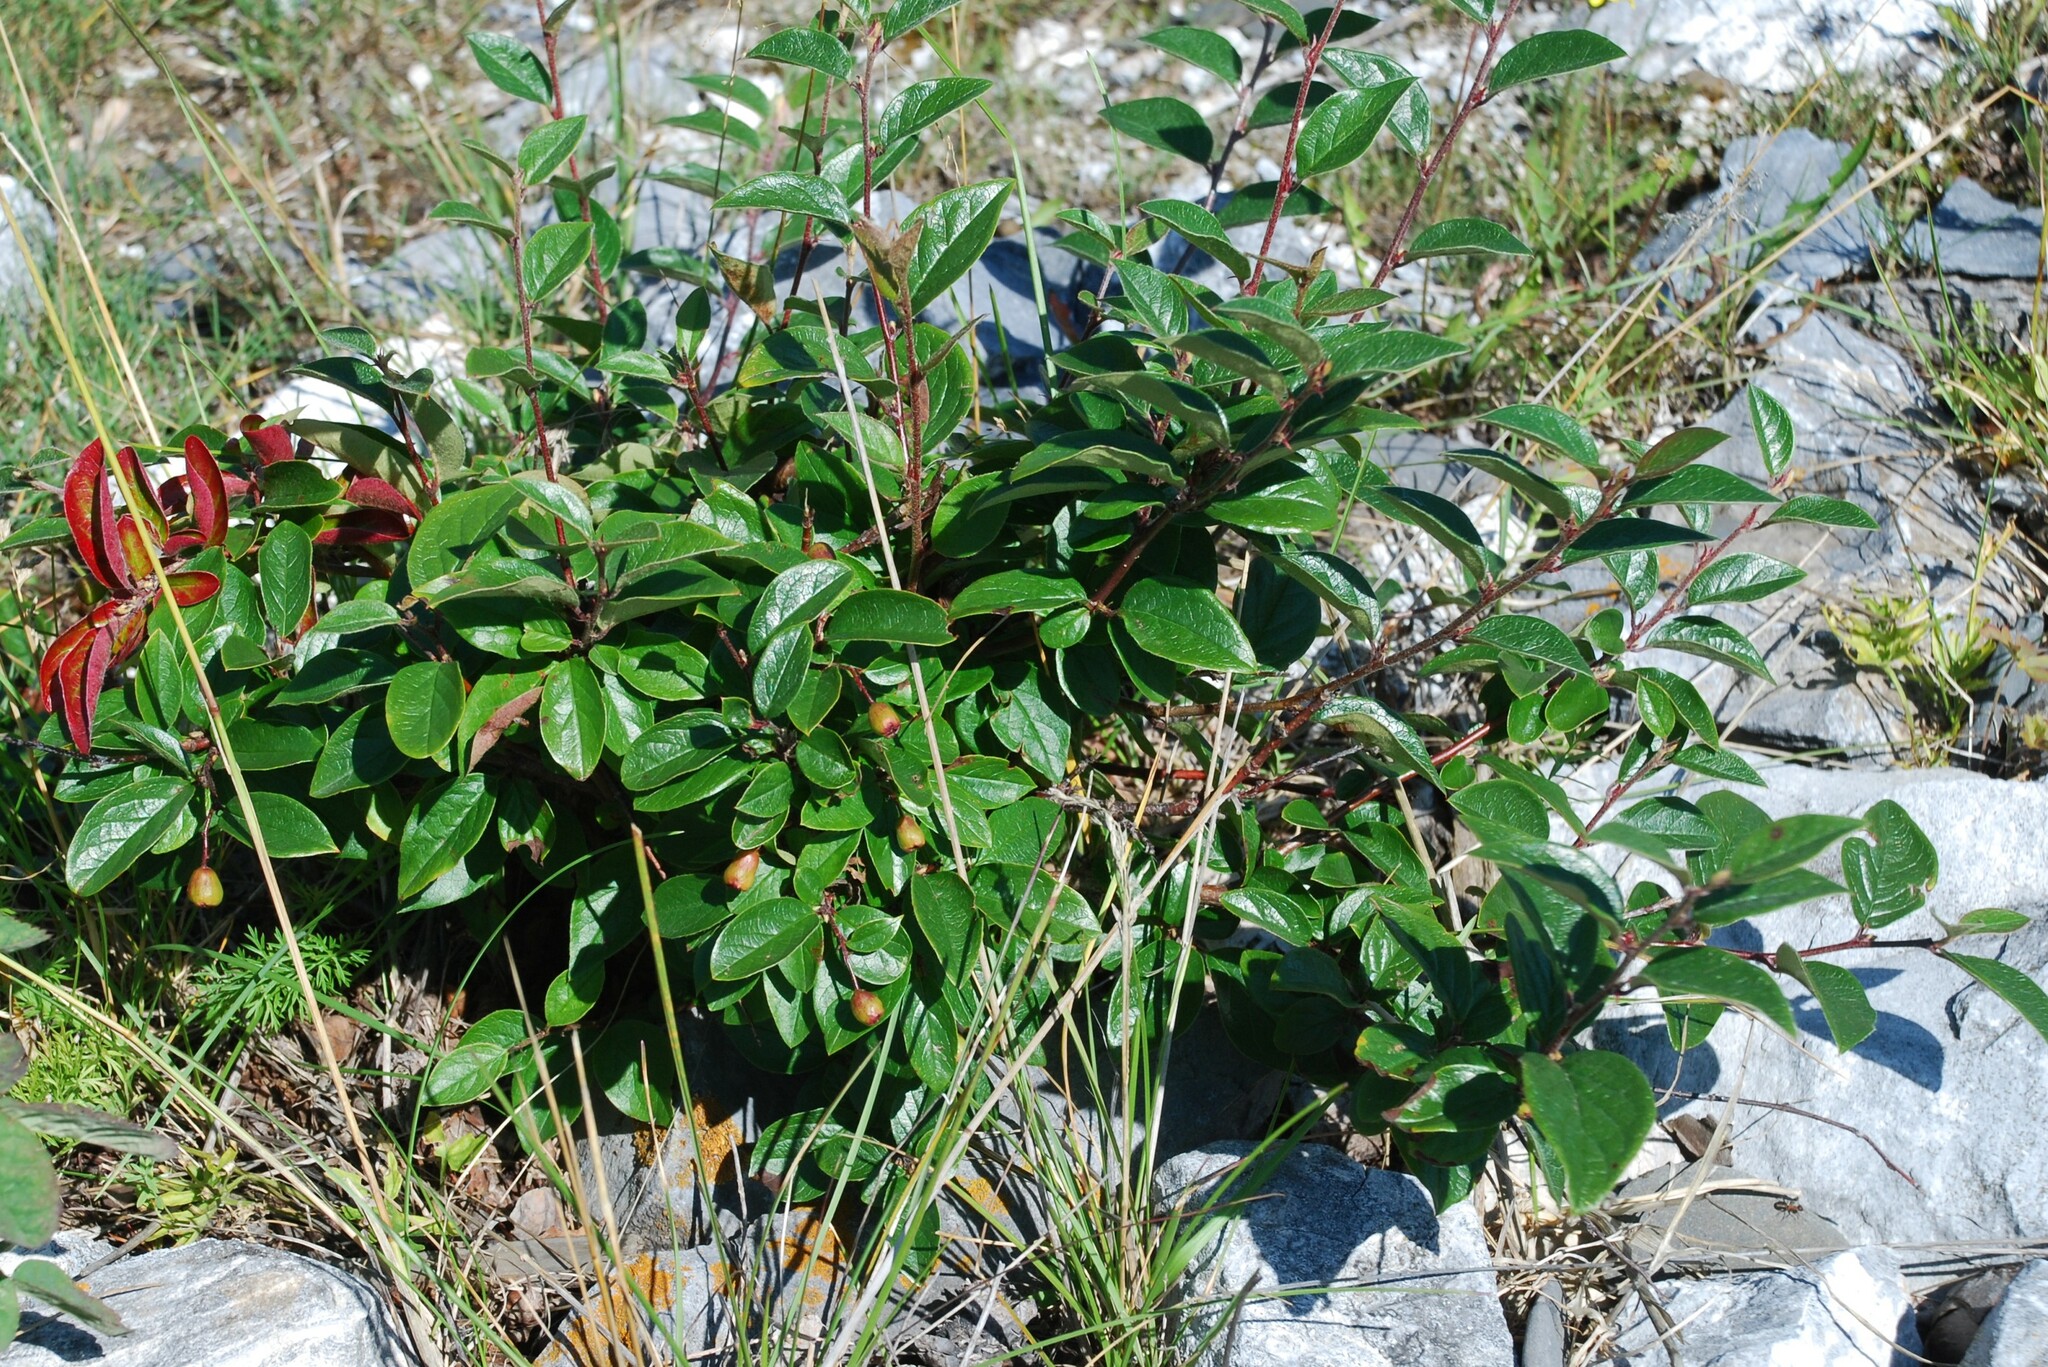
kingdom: Plantae
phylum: Tracheophyta
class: Magnoliopsida
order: Rosales
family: Rosaceae
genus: Cotoneaster
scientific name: Cotoneaster acutifolius
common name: Peking cotoneaster
